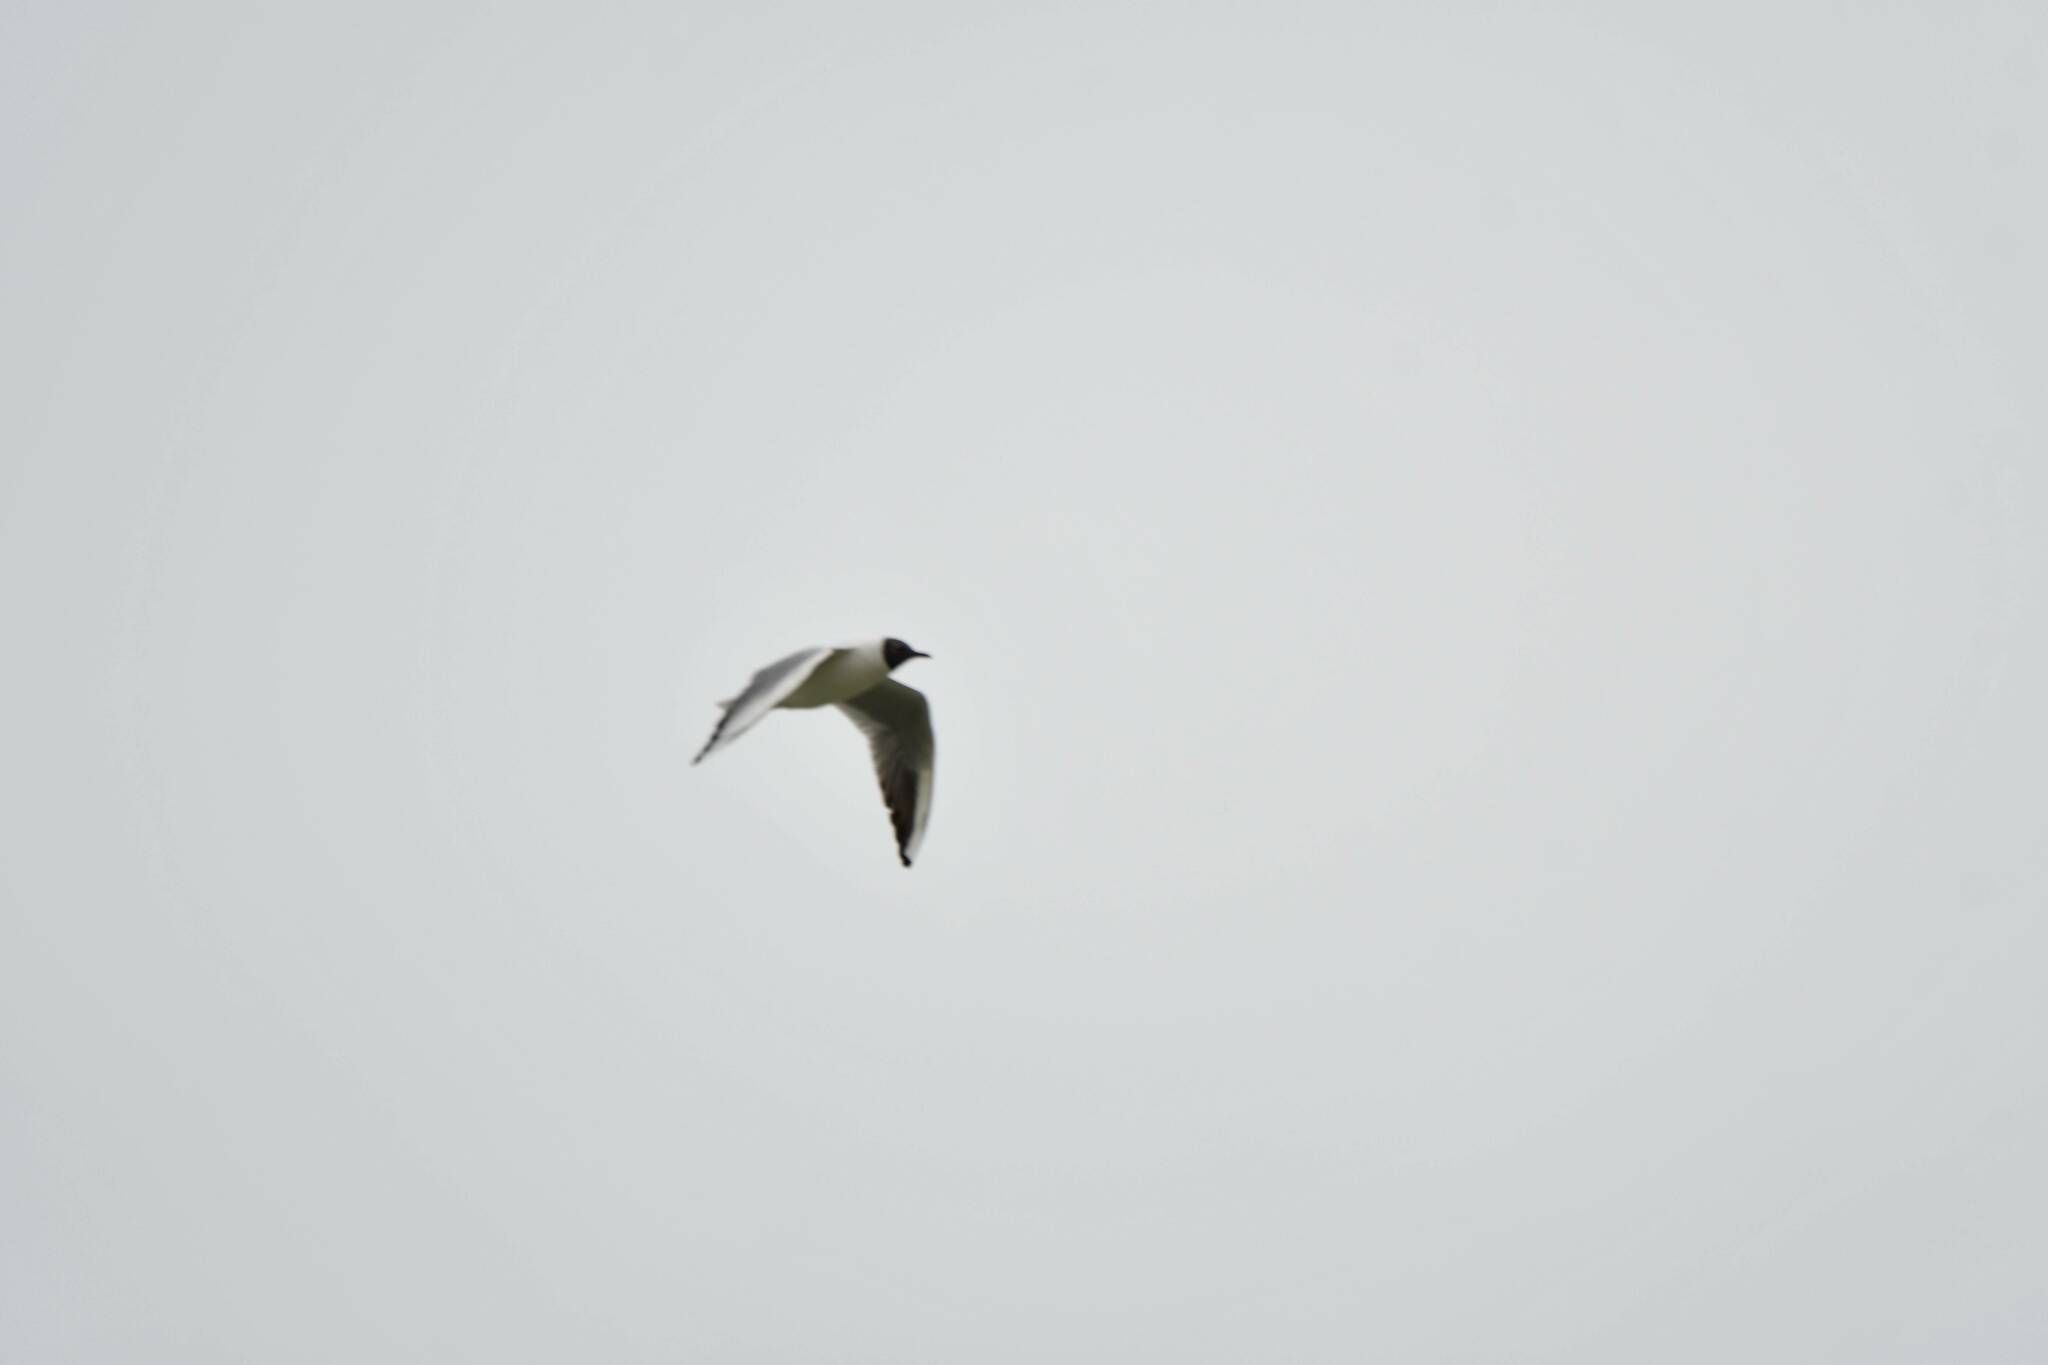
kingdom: Animalia
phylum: Chordata
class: Aves
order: Charadriiformes
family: Laridae
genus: Chroicocephalus
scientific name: Chroicocephalus ridibundus
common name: Black-headed gull
